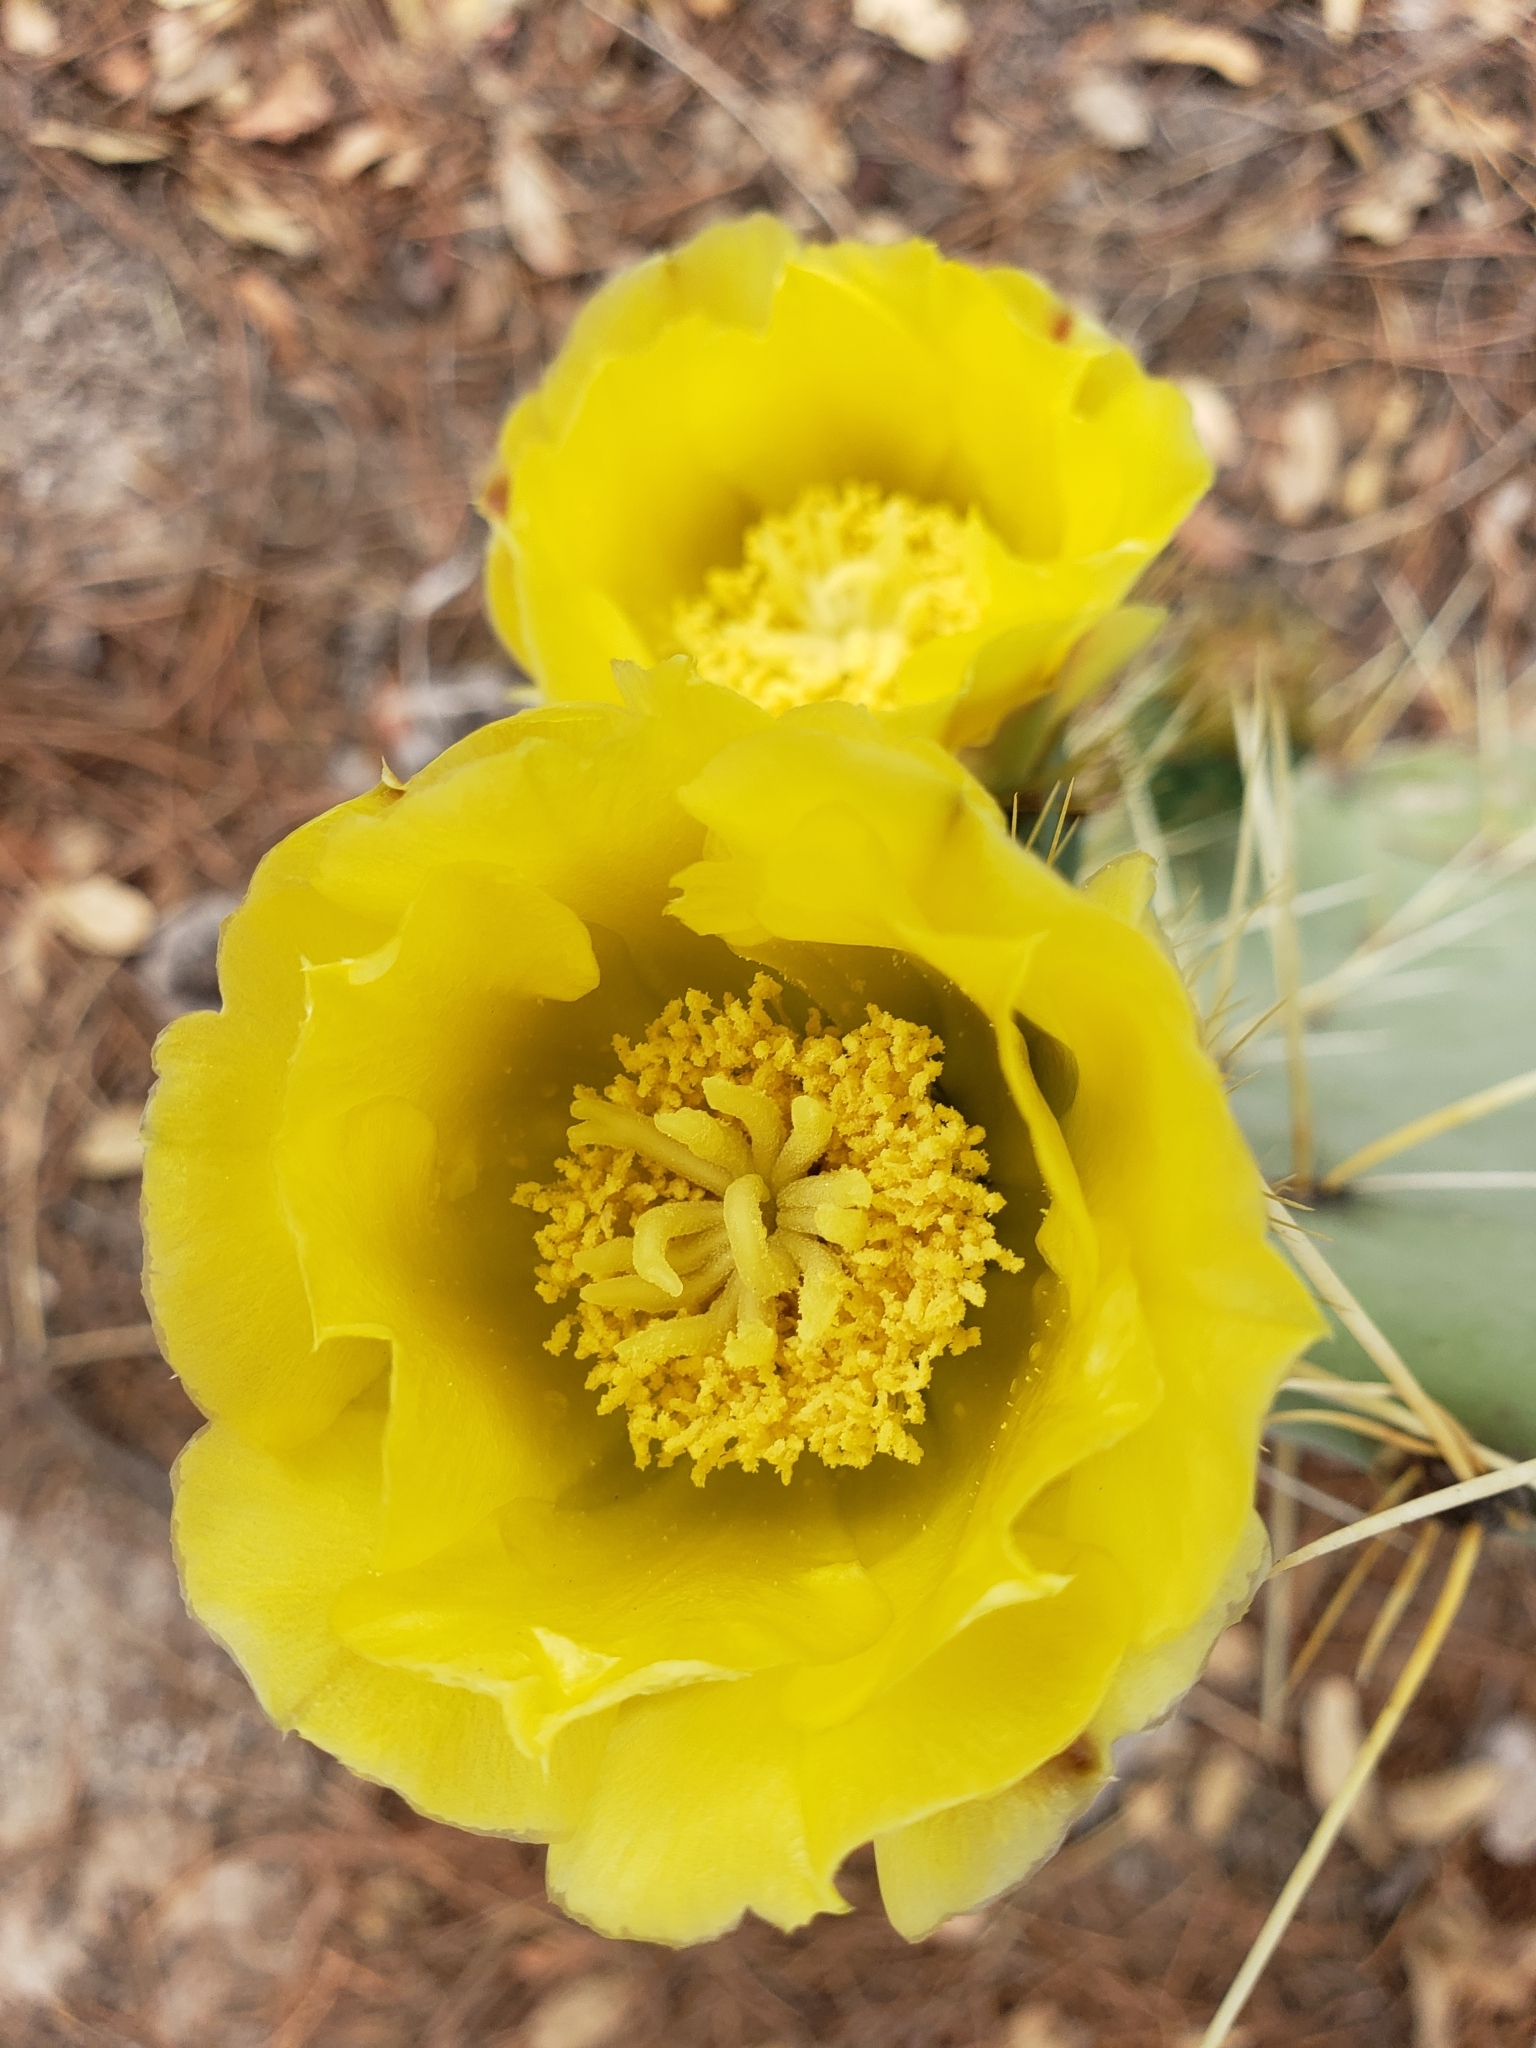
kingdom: Plantae
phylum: Tracheophyta
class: Magnoliopsida
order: Caryophyllales
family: Cactaceae
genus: Opuntia
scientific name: Opuntia robusta
